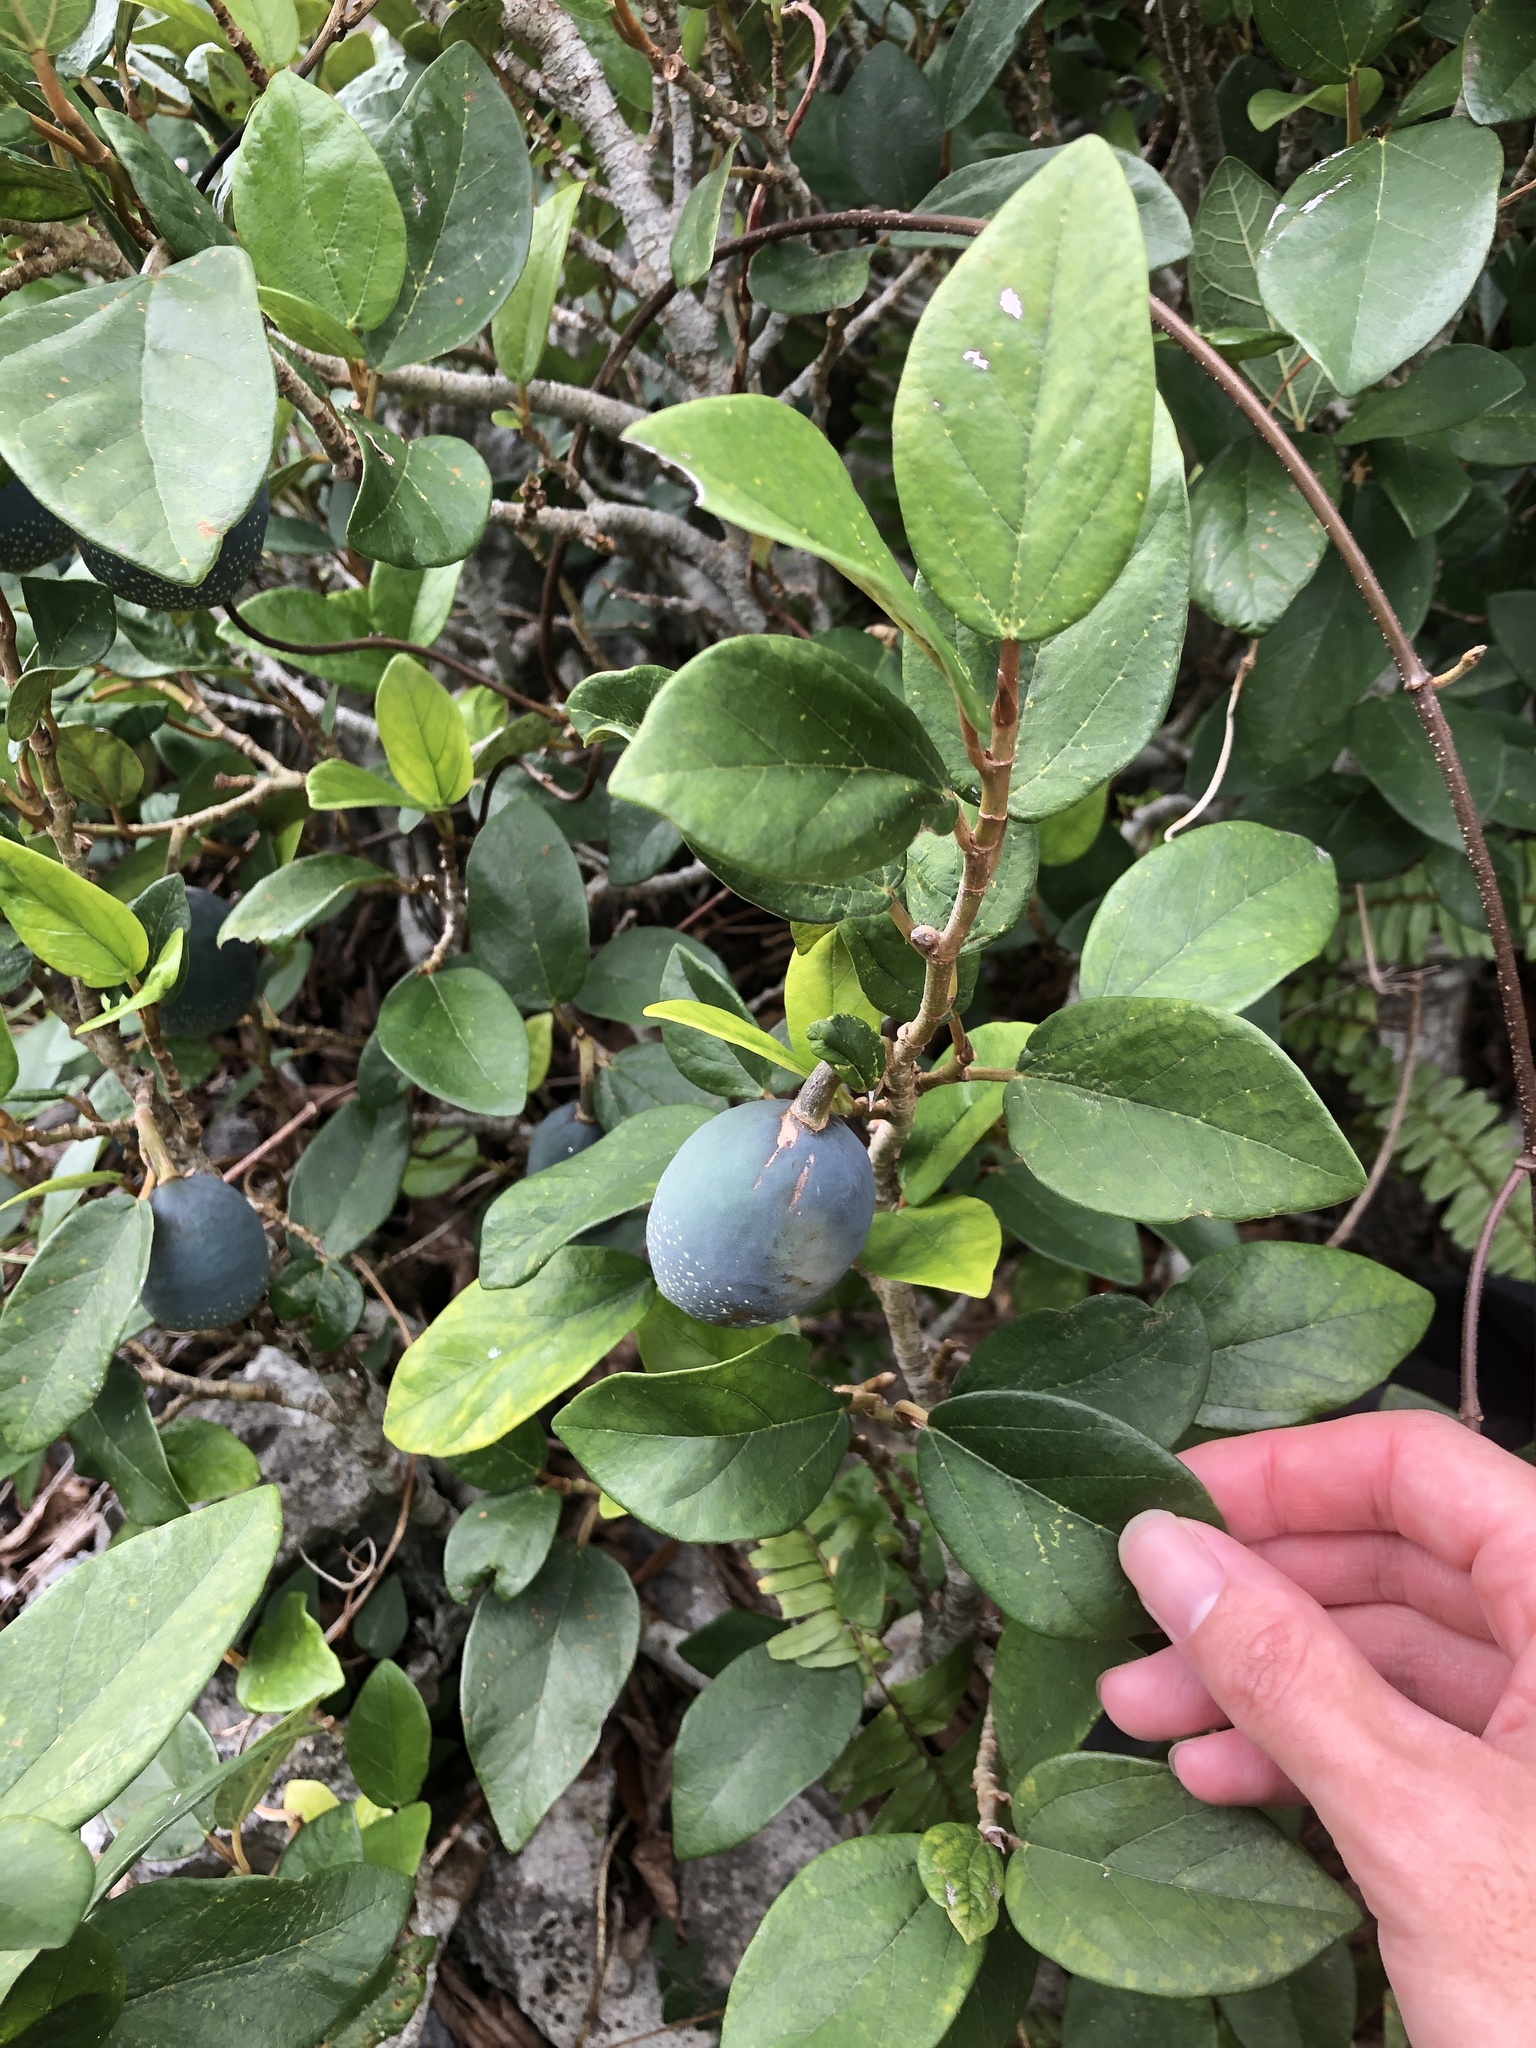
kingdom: Plantae
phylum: Tracheophyta
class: Magnoliopsida
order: Rosales
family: Moraceae
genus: Ficus
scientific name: Ficus pumila
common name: Climbingfig
